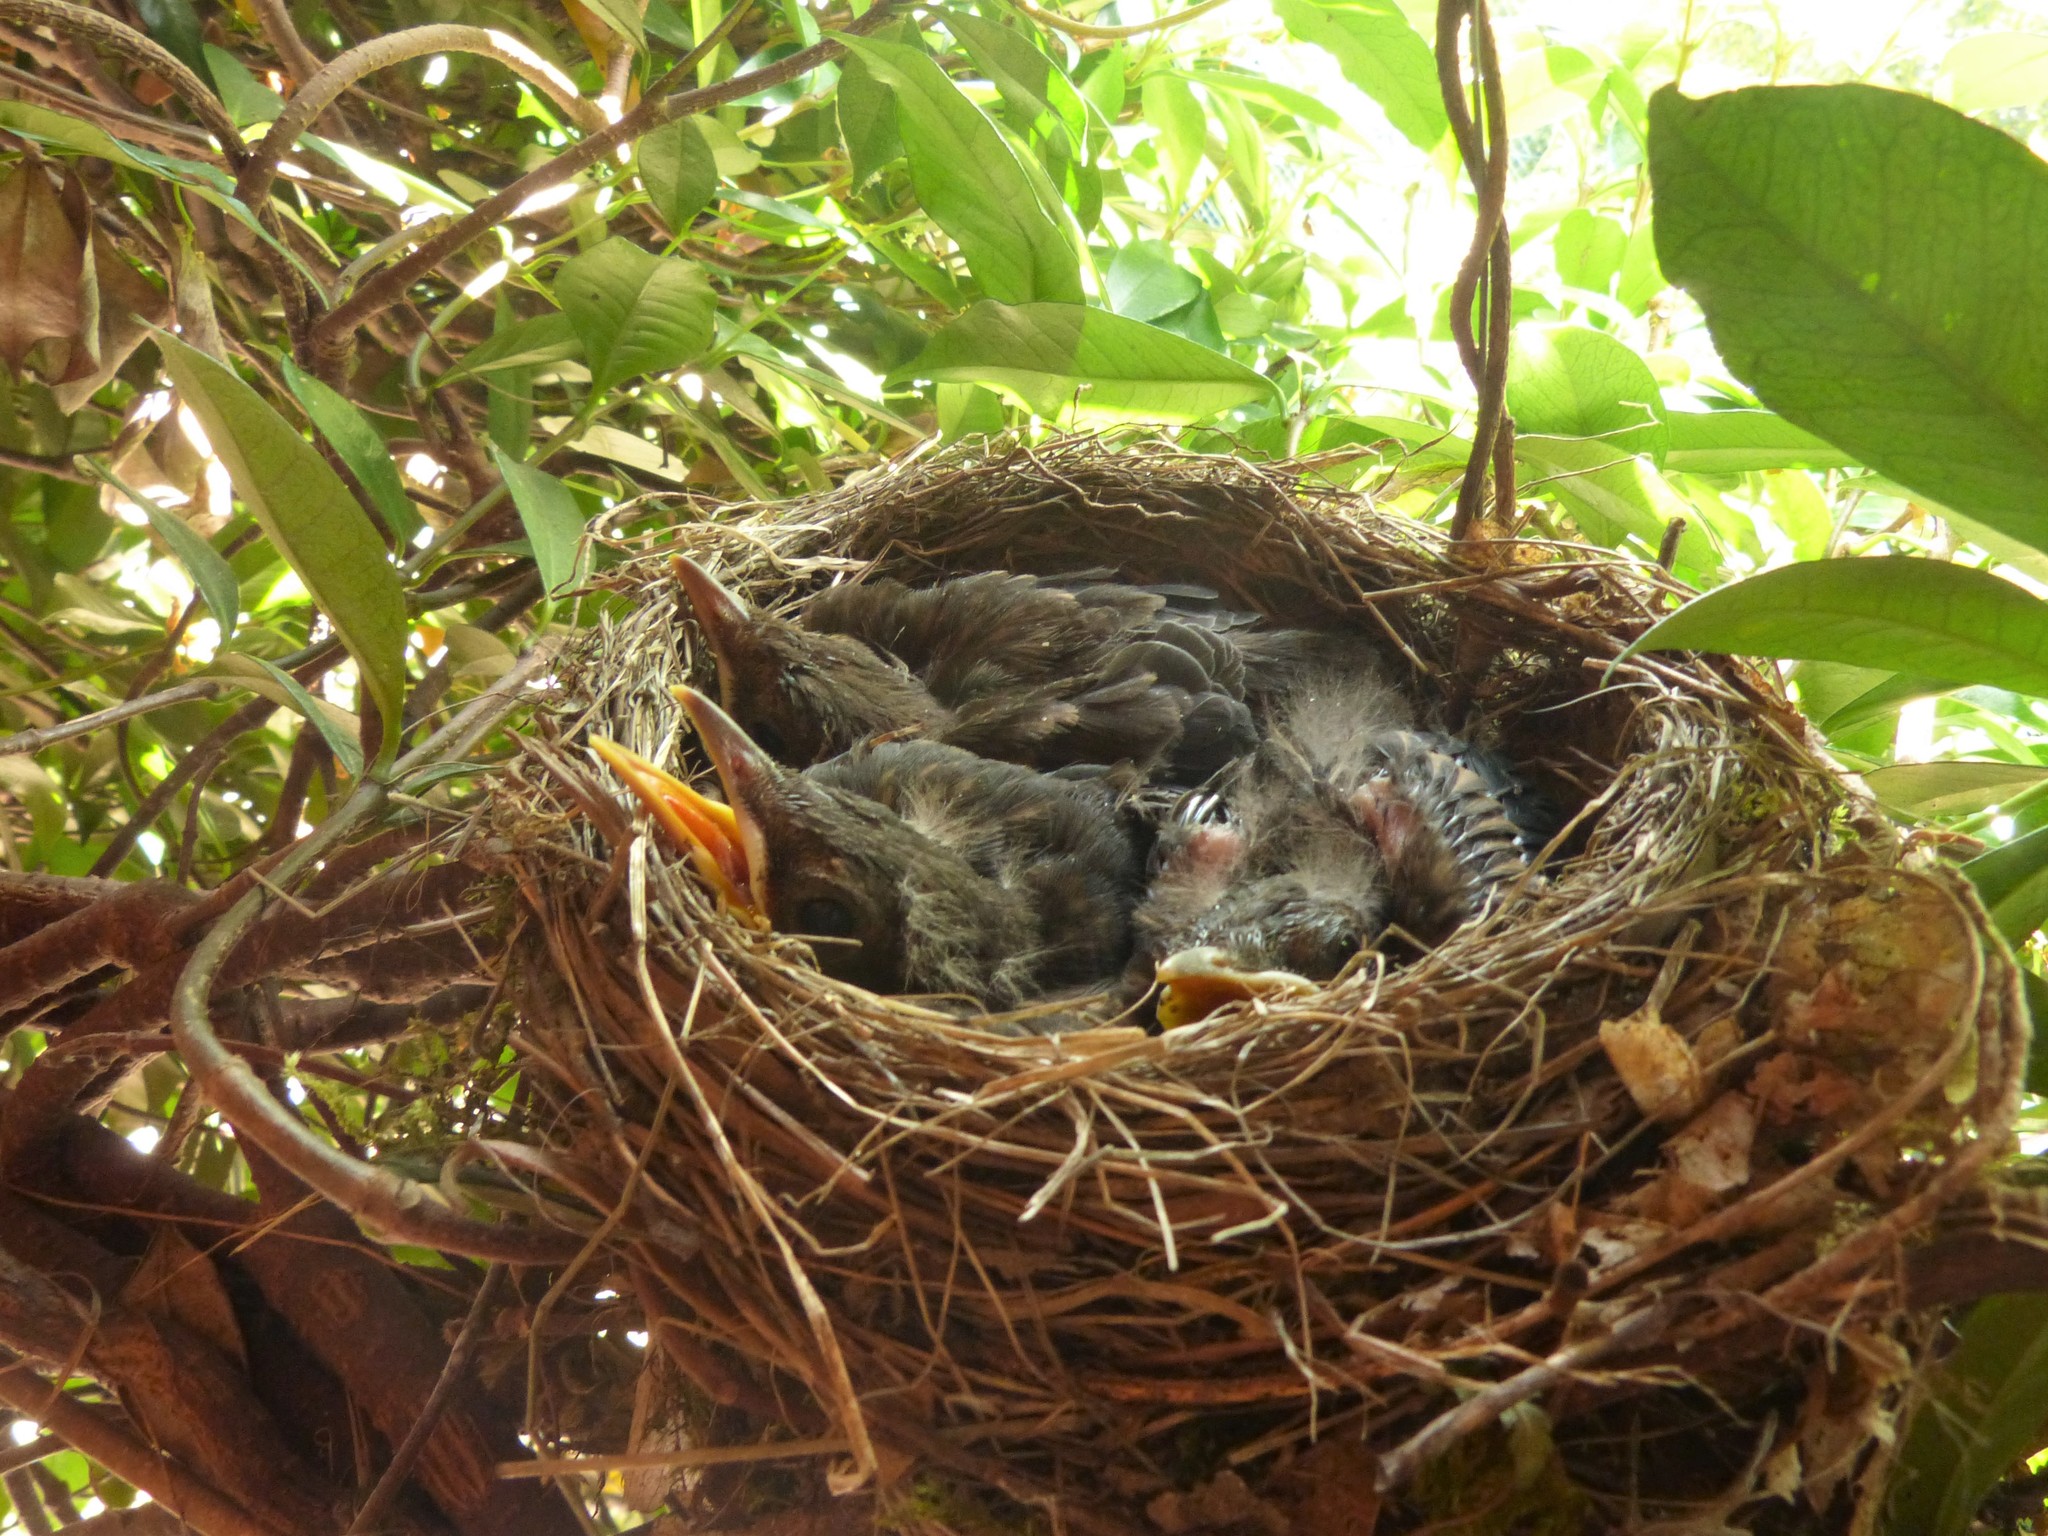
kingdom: Animalia
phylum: Chordata
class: Aves
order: Passeriformes
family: Turdidae
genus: Turdus
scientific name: Turdus merula
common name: Common blackbird
